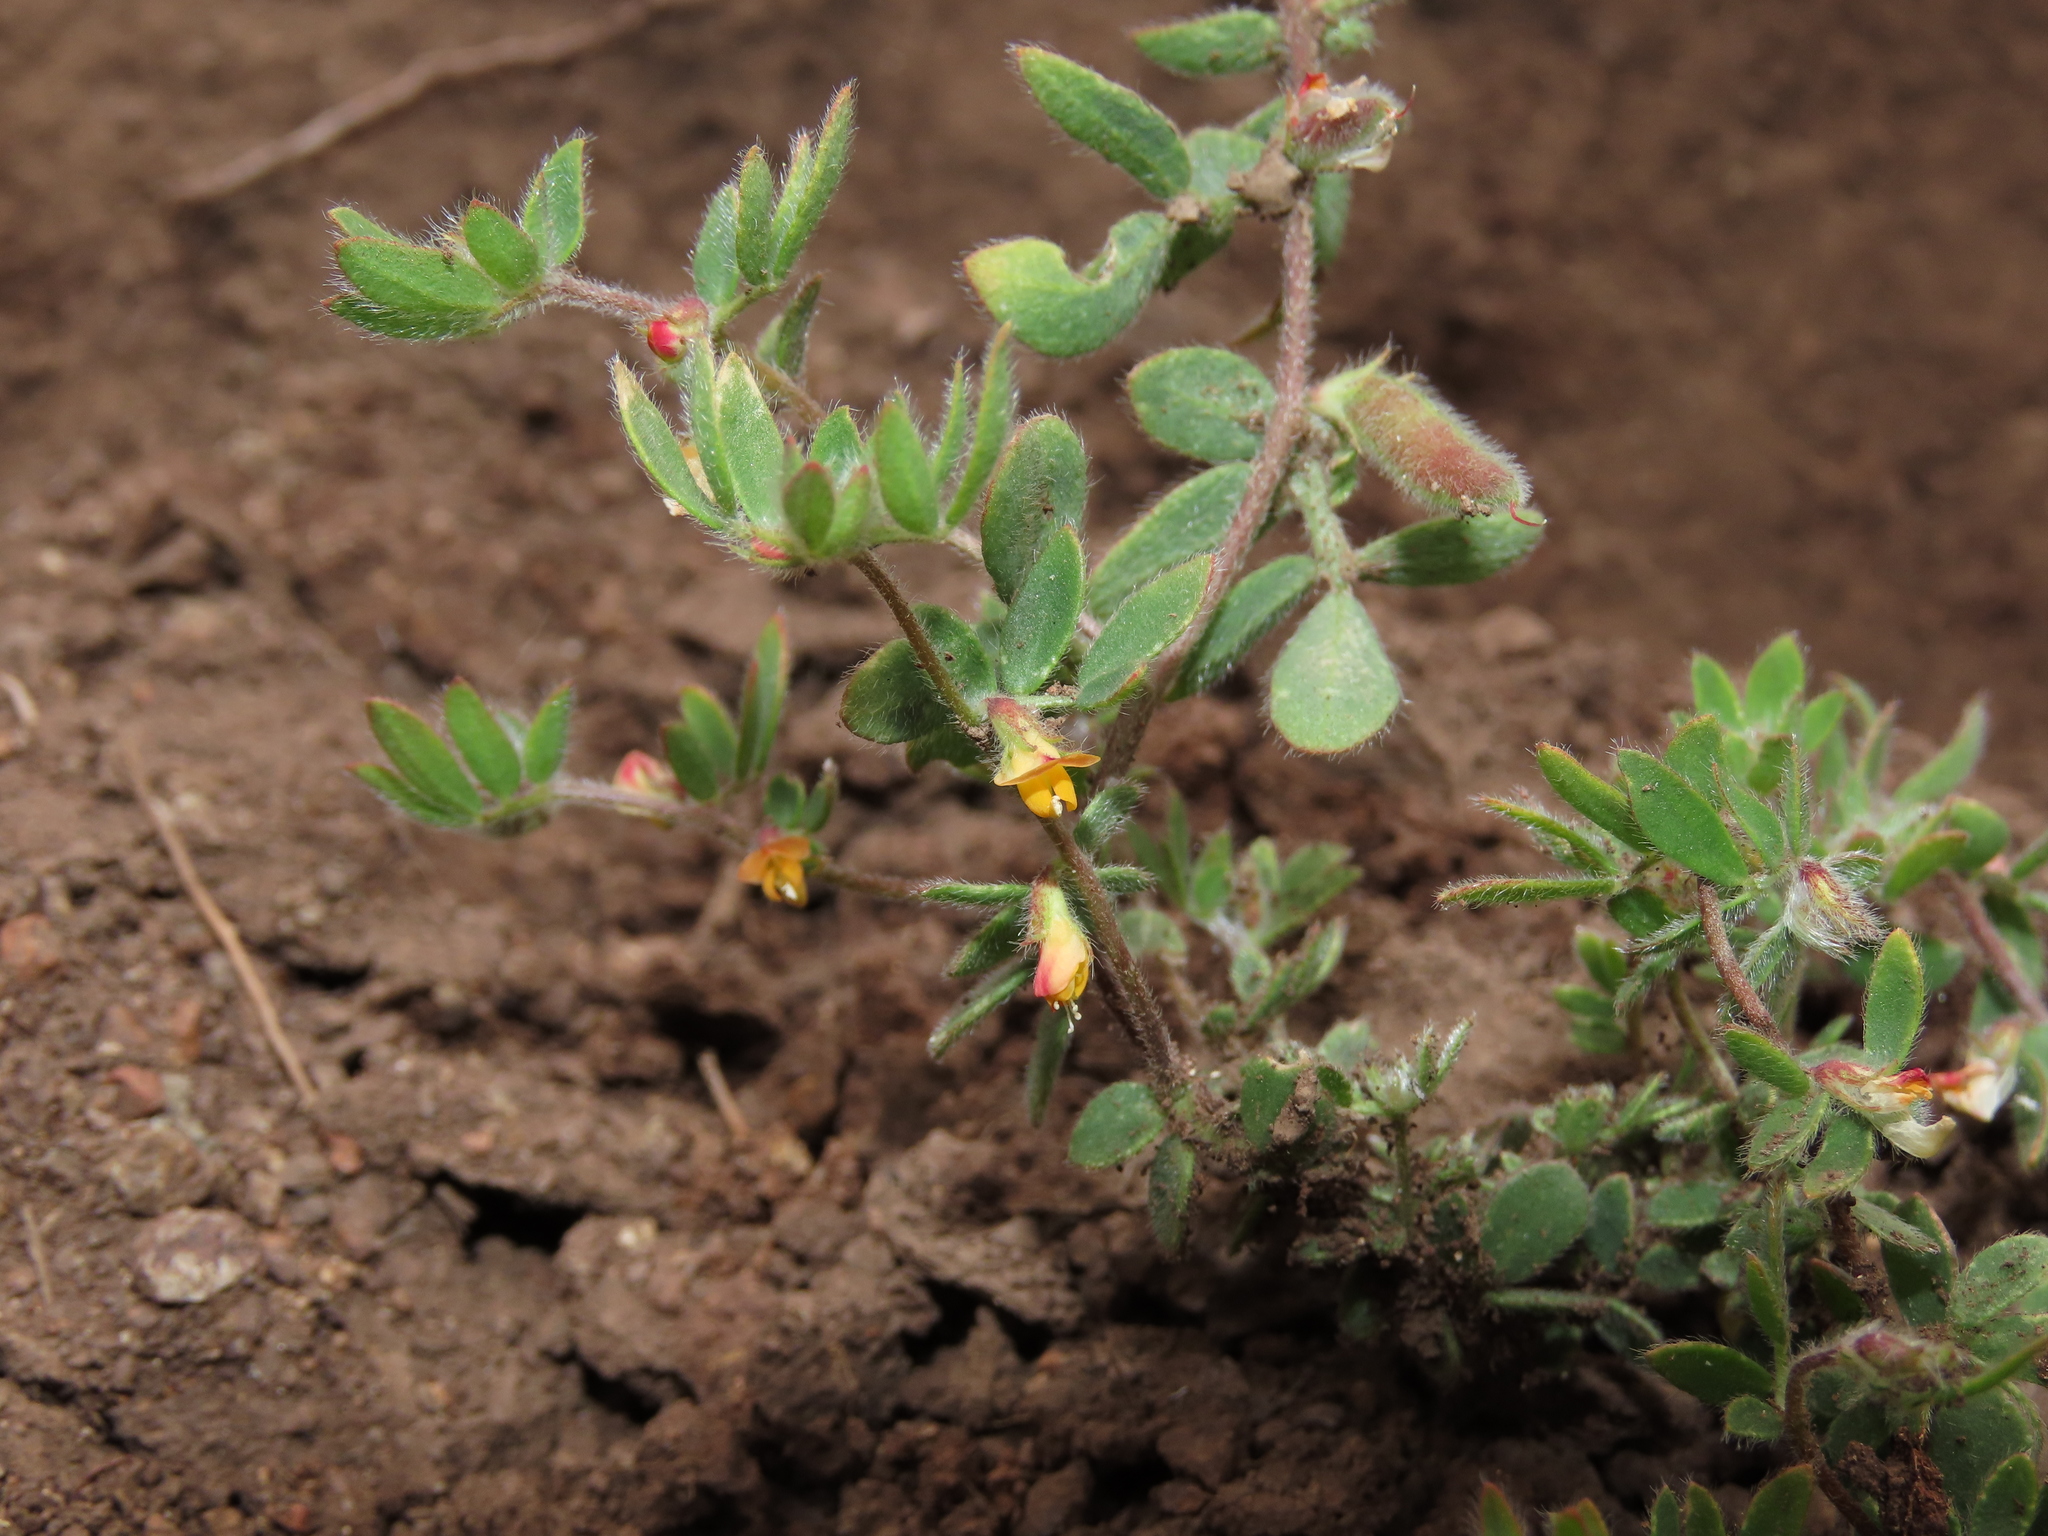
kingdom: Plantae
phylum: Tracheophyta
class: Magnoliopsida
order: Fabales
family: Fabaceae
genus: Acmispon
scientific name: Acmispon subpinnatus
